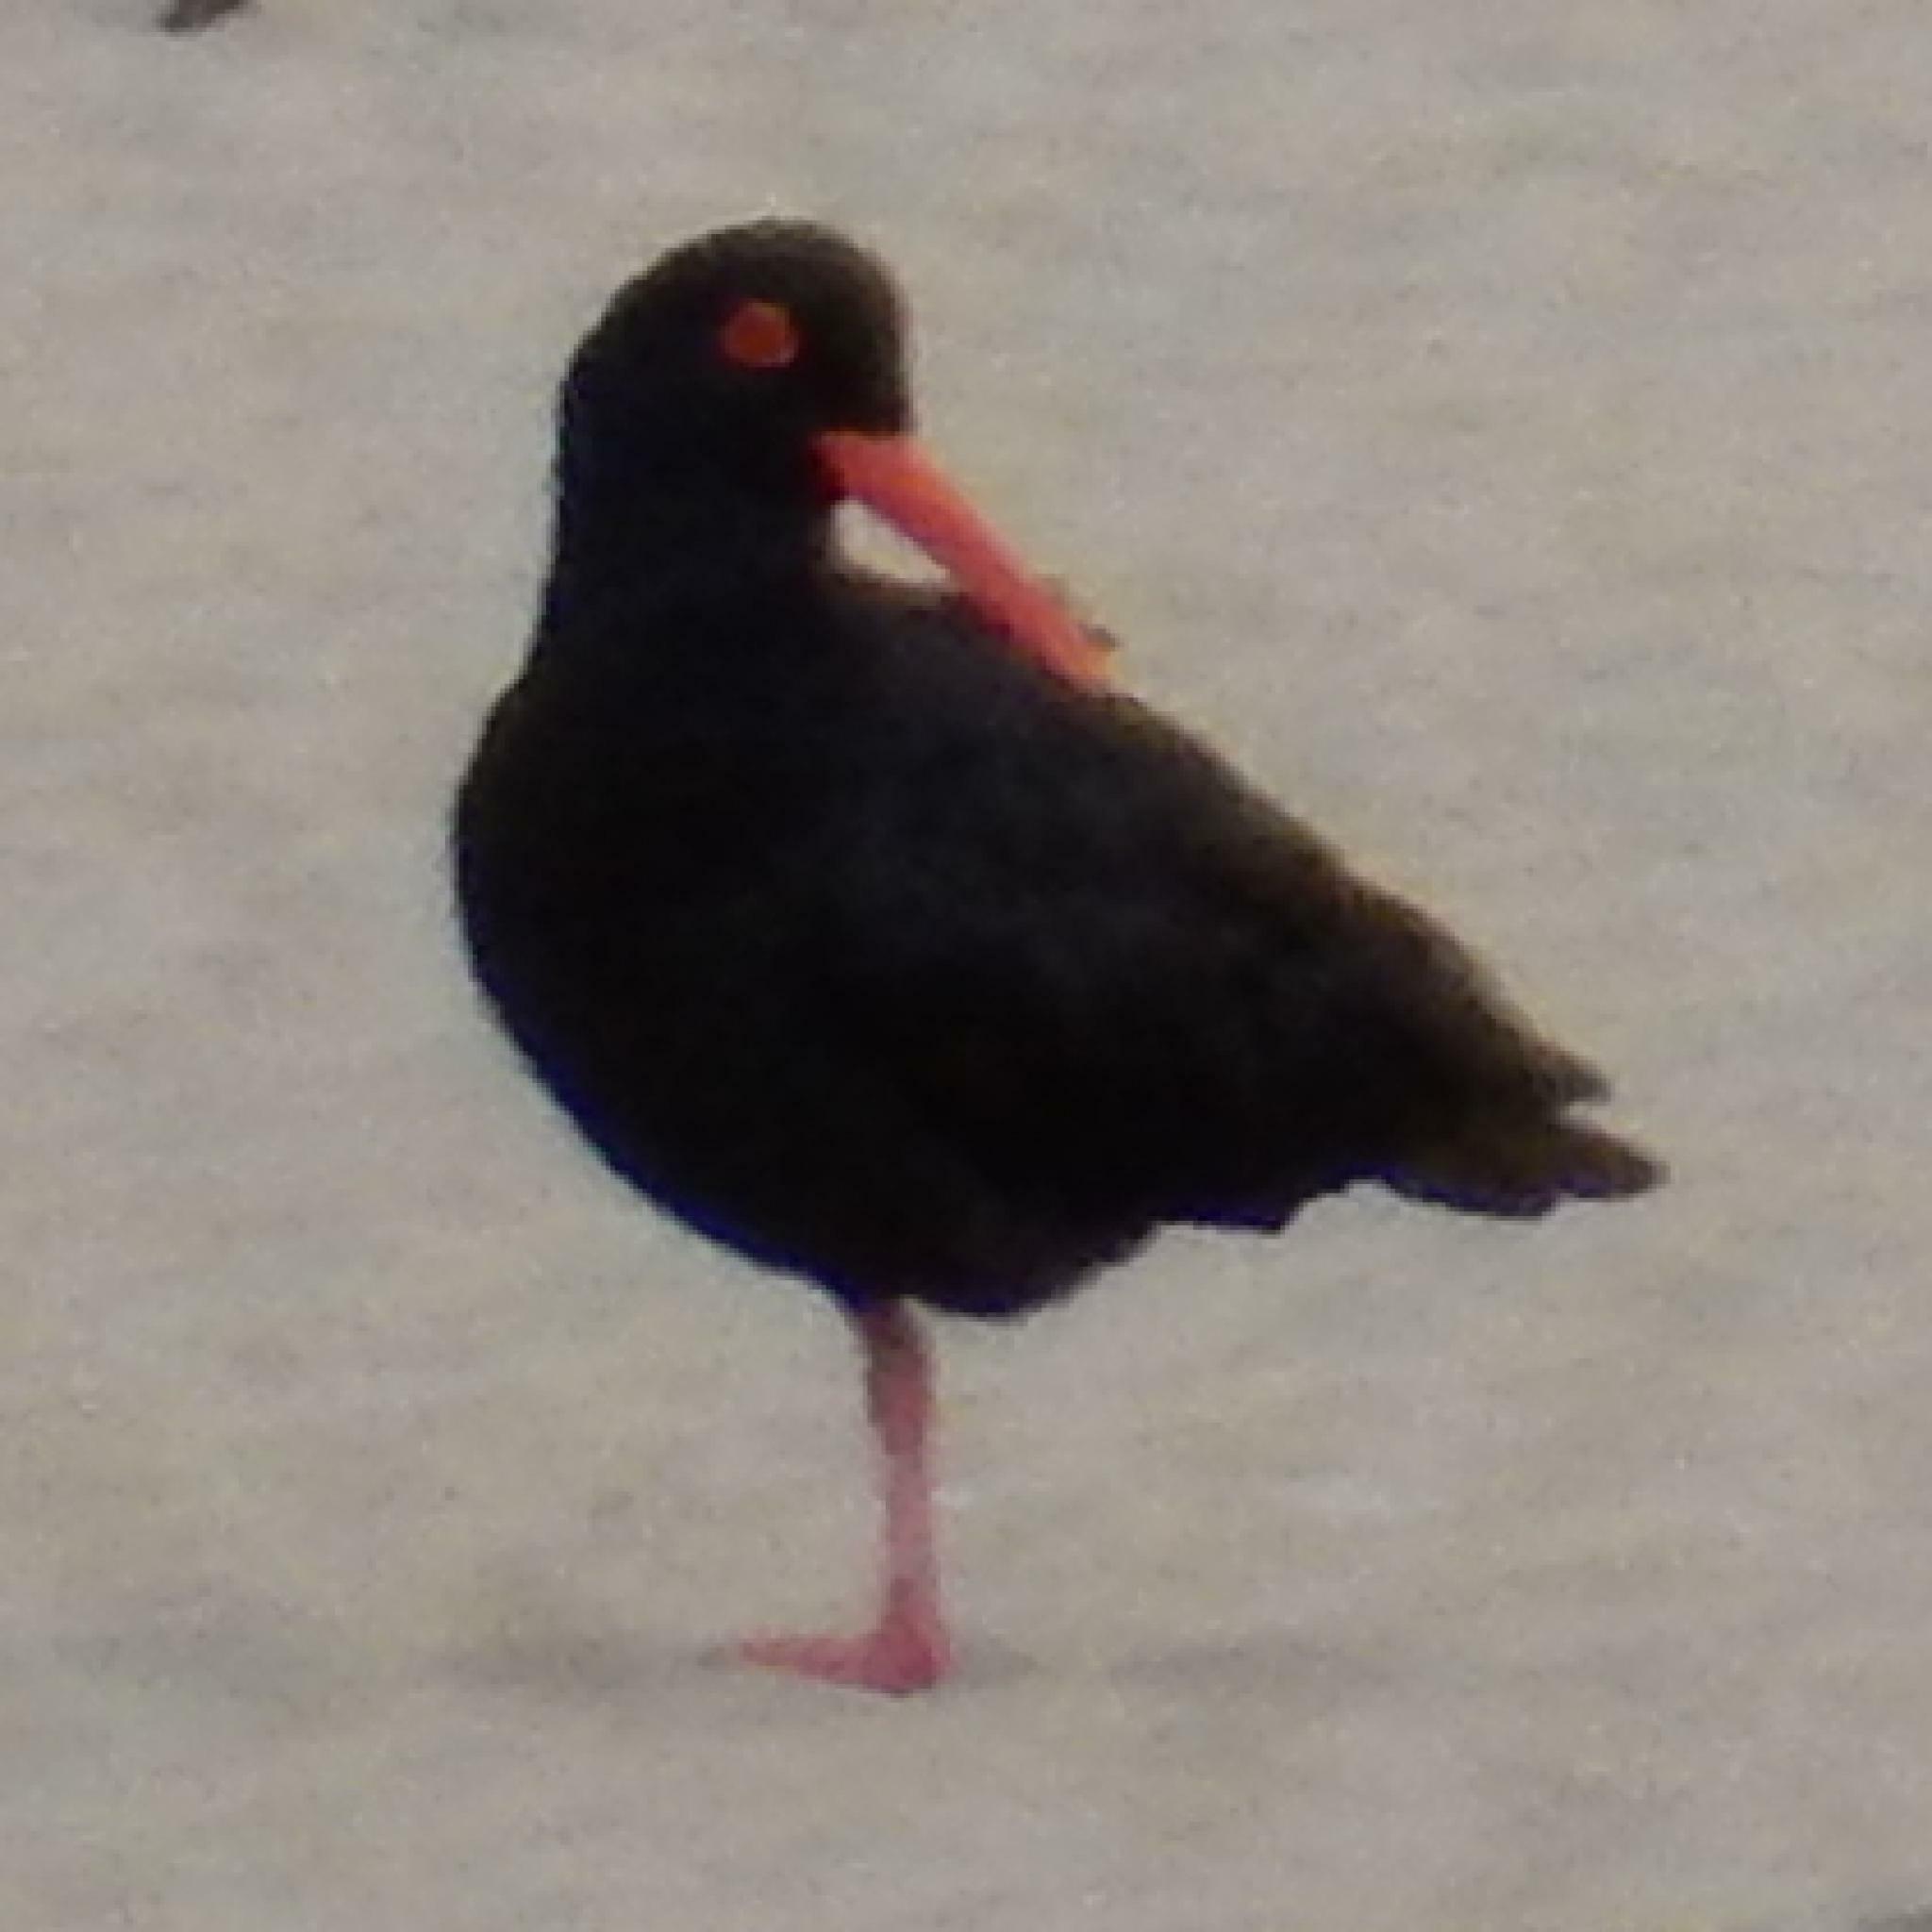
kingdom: Animalia
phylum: Chordata
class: Aves
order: Charadriiformes
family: Haematopodidae
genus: Haematopus
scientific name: Haematopus moquini
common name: African oystercatcher
